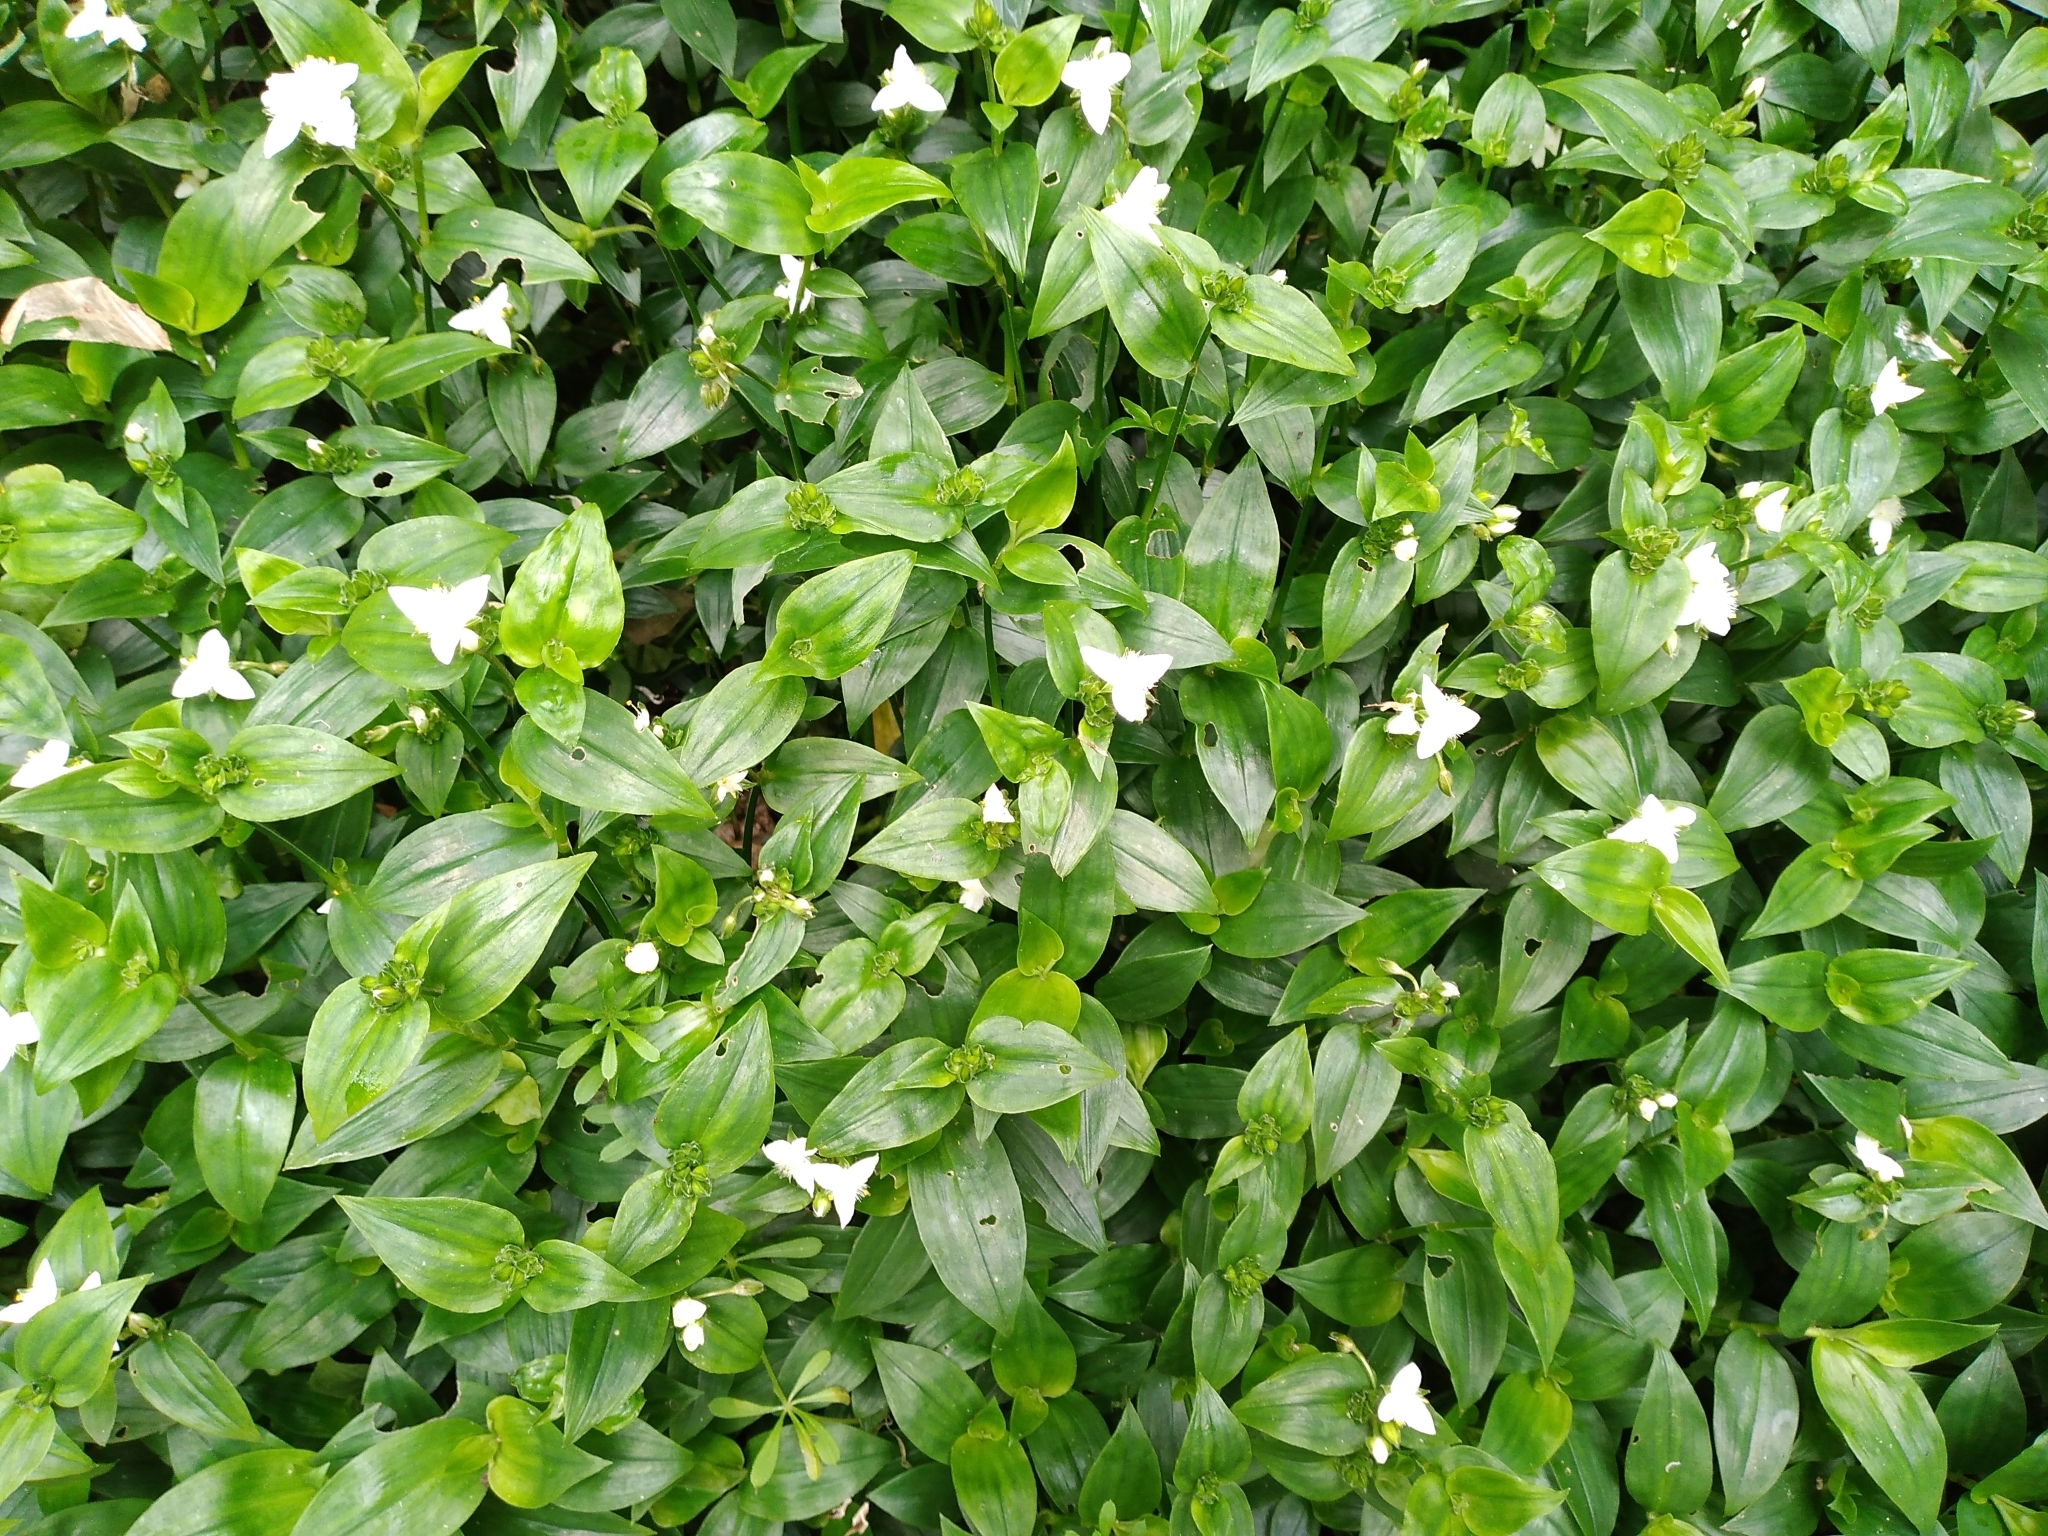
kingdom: Plantae
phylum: Tracheophyta
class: Liliopsida
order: Commelinales
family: Commelinaceae
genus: Tradescantia
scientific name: Tradescantia fluminensis
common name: Wandering-jew
